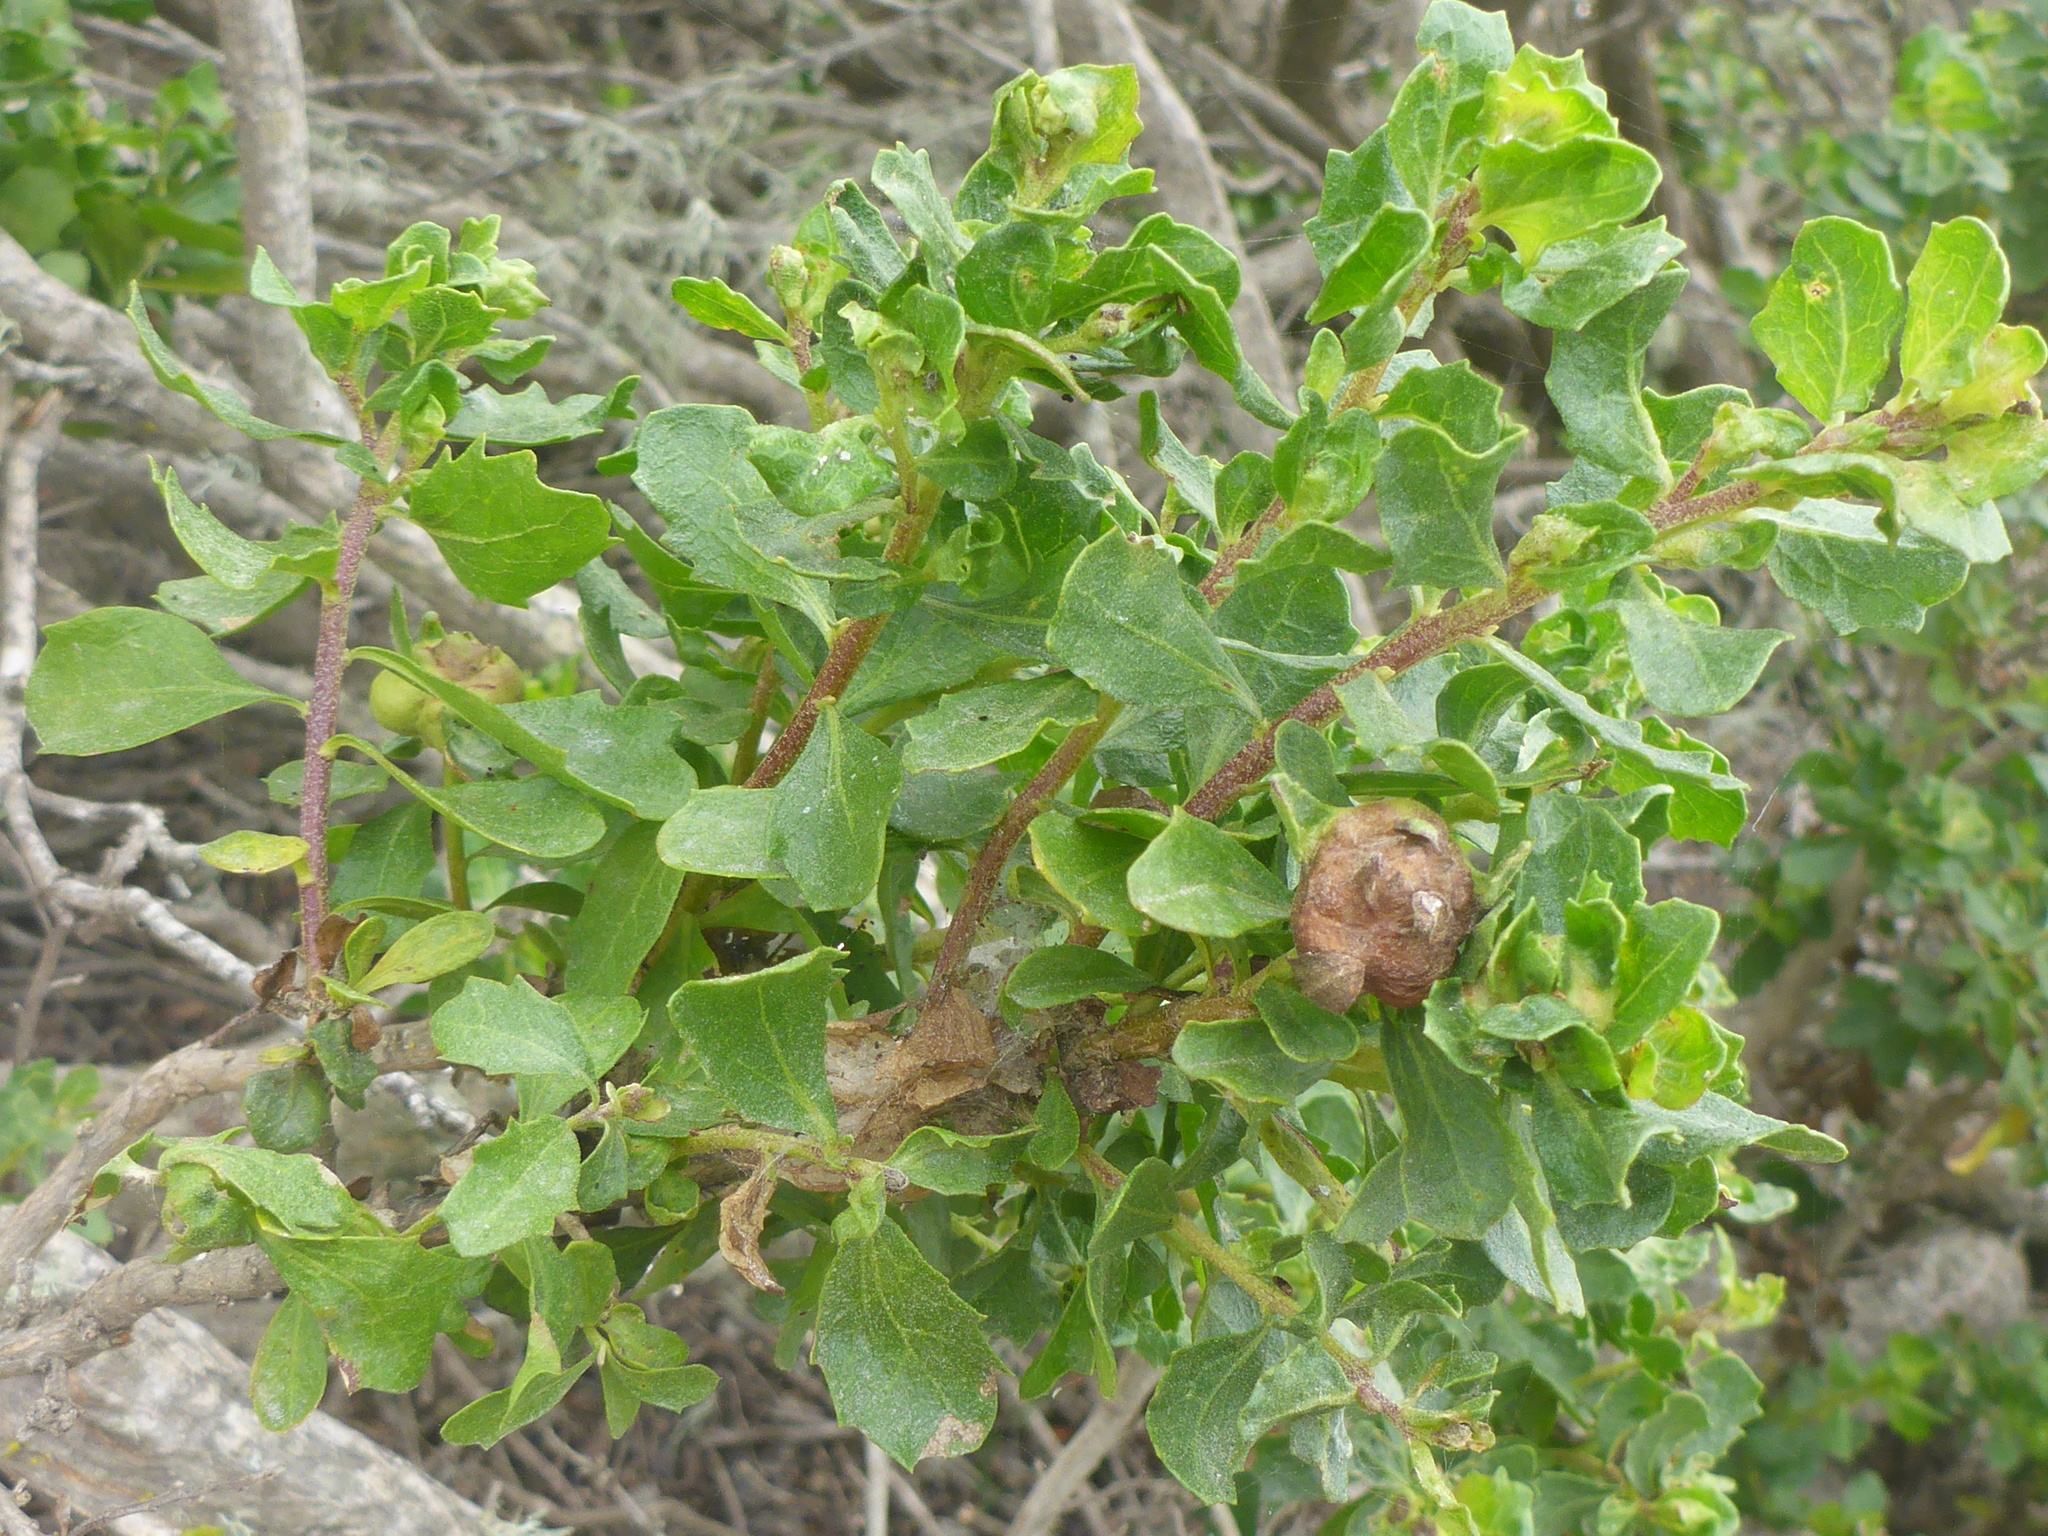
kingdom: Fungi
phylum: Basidiomycota
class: Pucciniomycetes
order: Pucciniales
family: Pucciniaceae
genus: Eriosporangium
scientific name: Eriosporangium evadens
